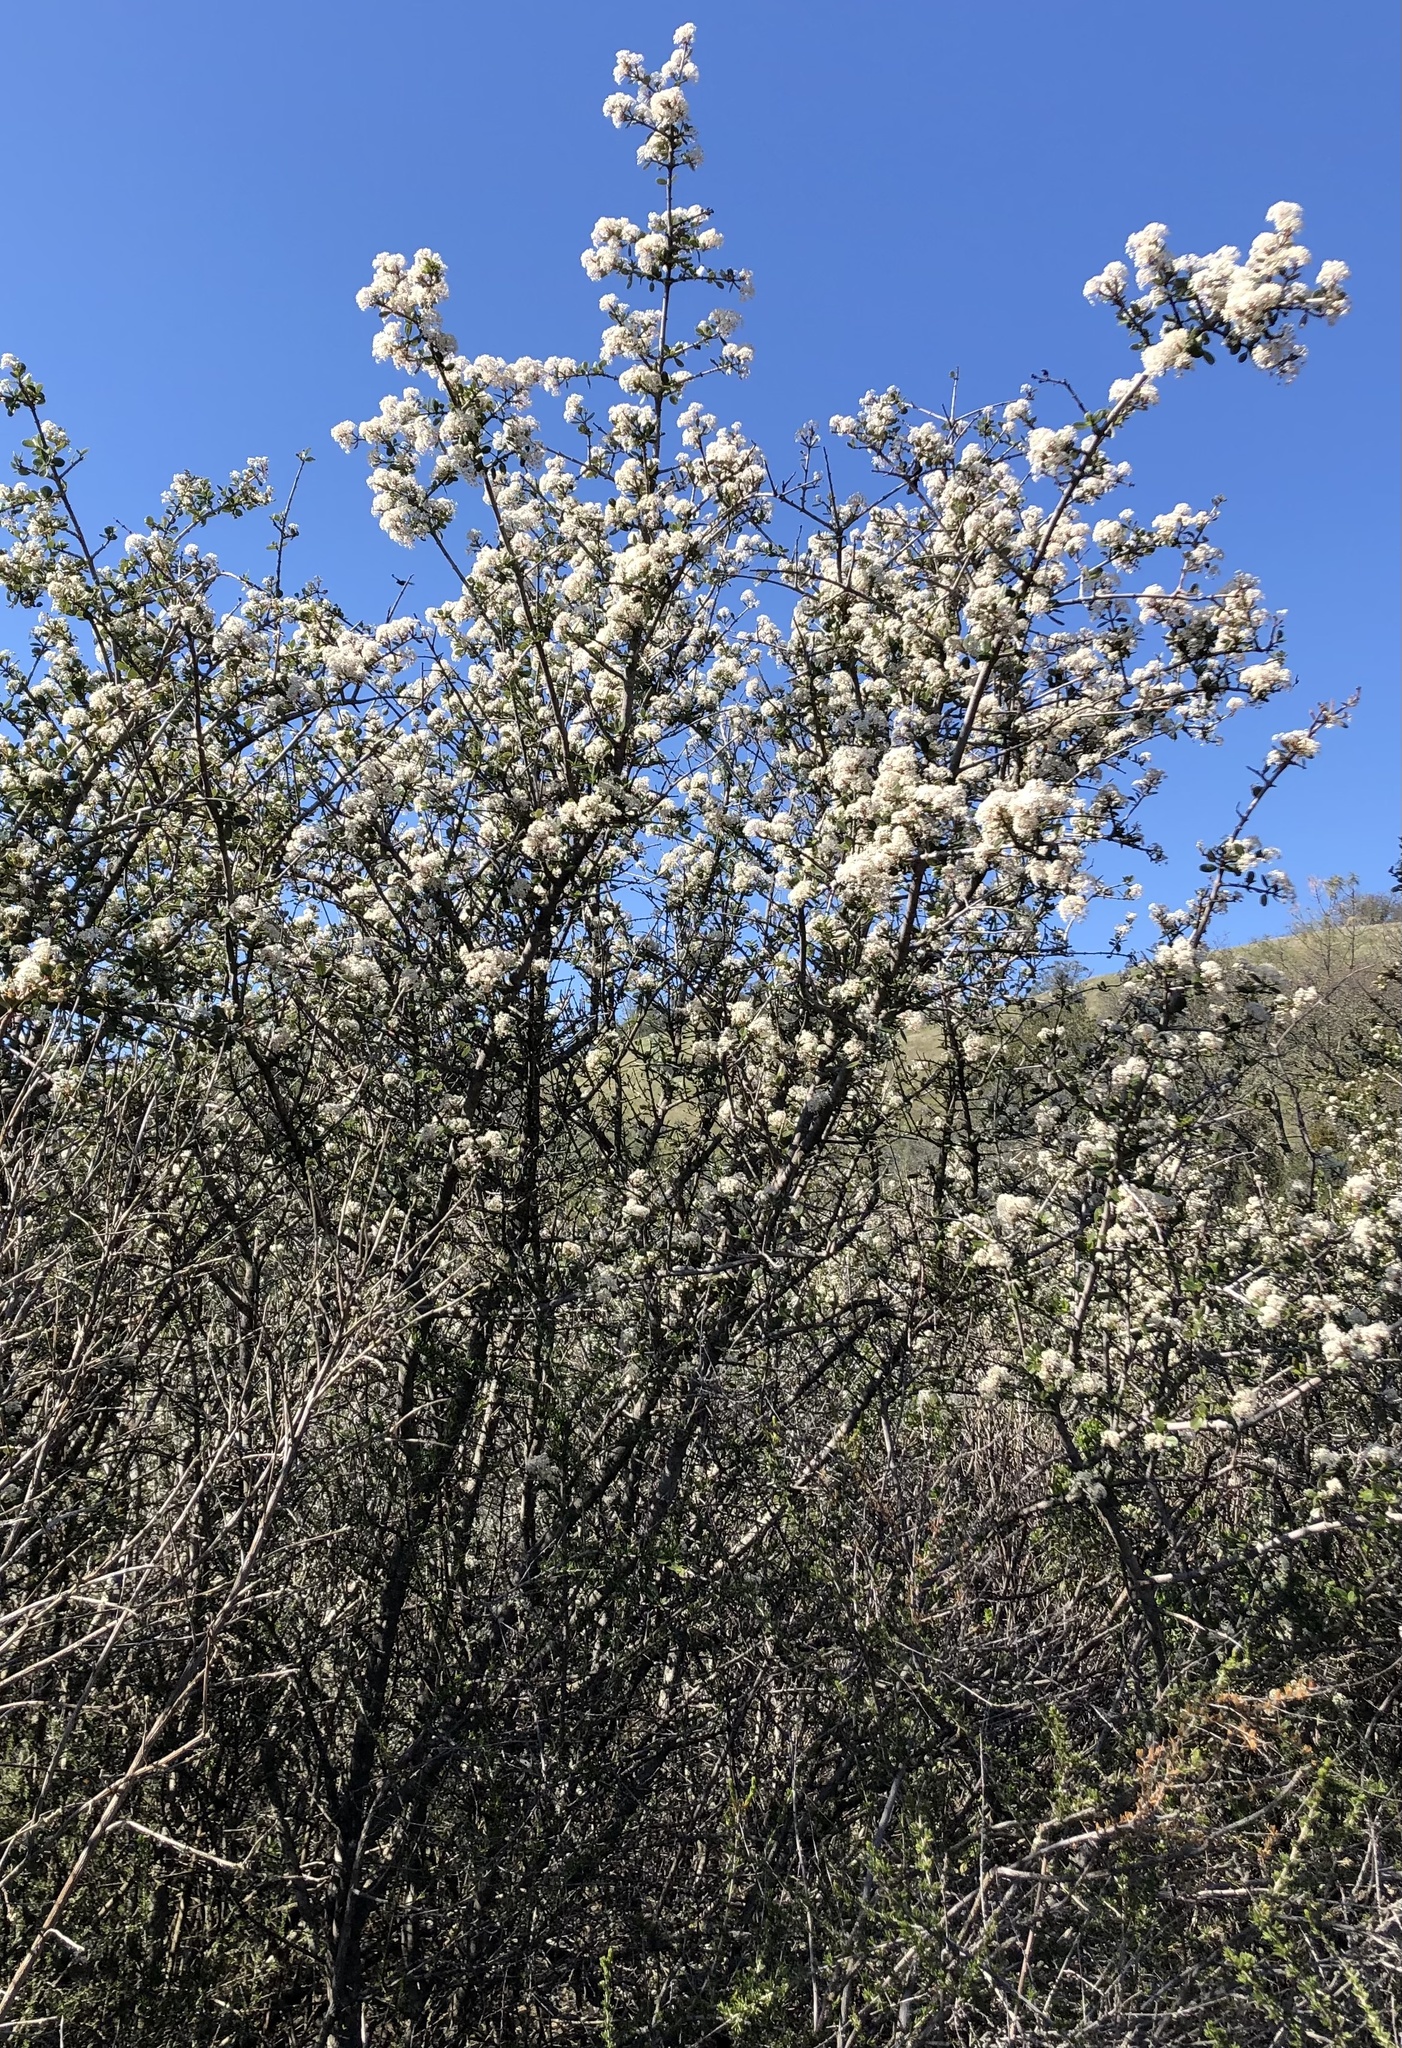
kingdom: Plantae
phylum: Tracheophyta
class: Magnoliopsida
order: Rosales
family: Rhamnaceae
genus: Ceanothus
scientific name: Ceanothus cuneatus
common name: Cuneate ceanothus
